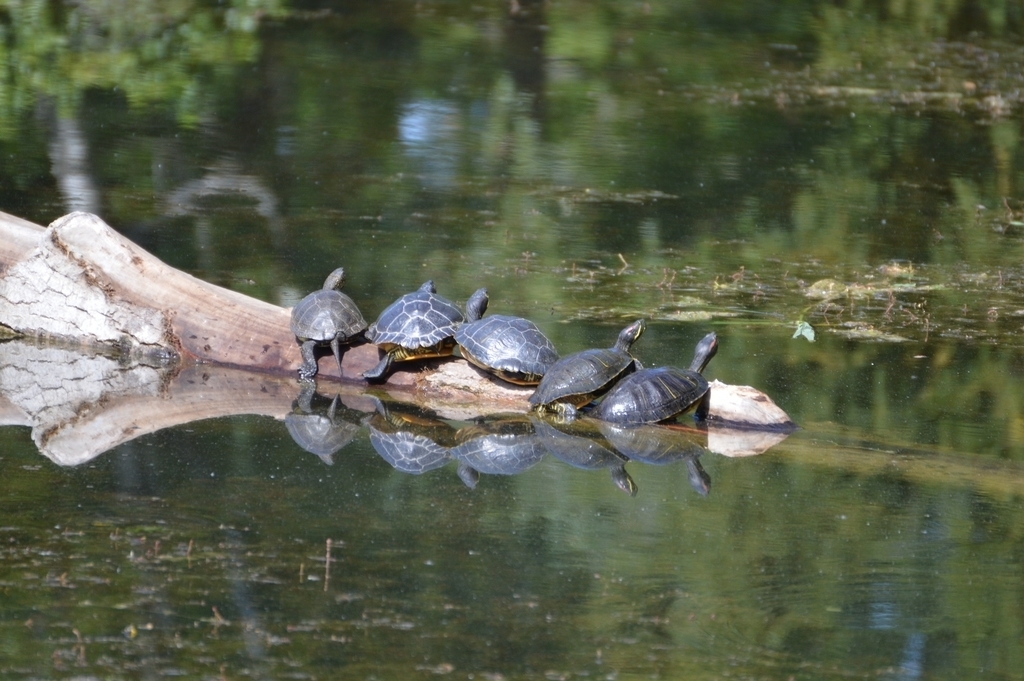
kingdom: Animalia
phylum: Chordata
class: Testudines
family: Emydidae
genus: Trachemys
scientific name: Trachemys scripta
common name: Slider
